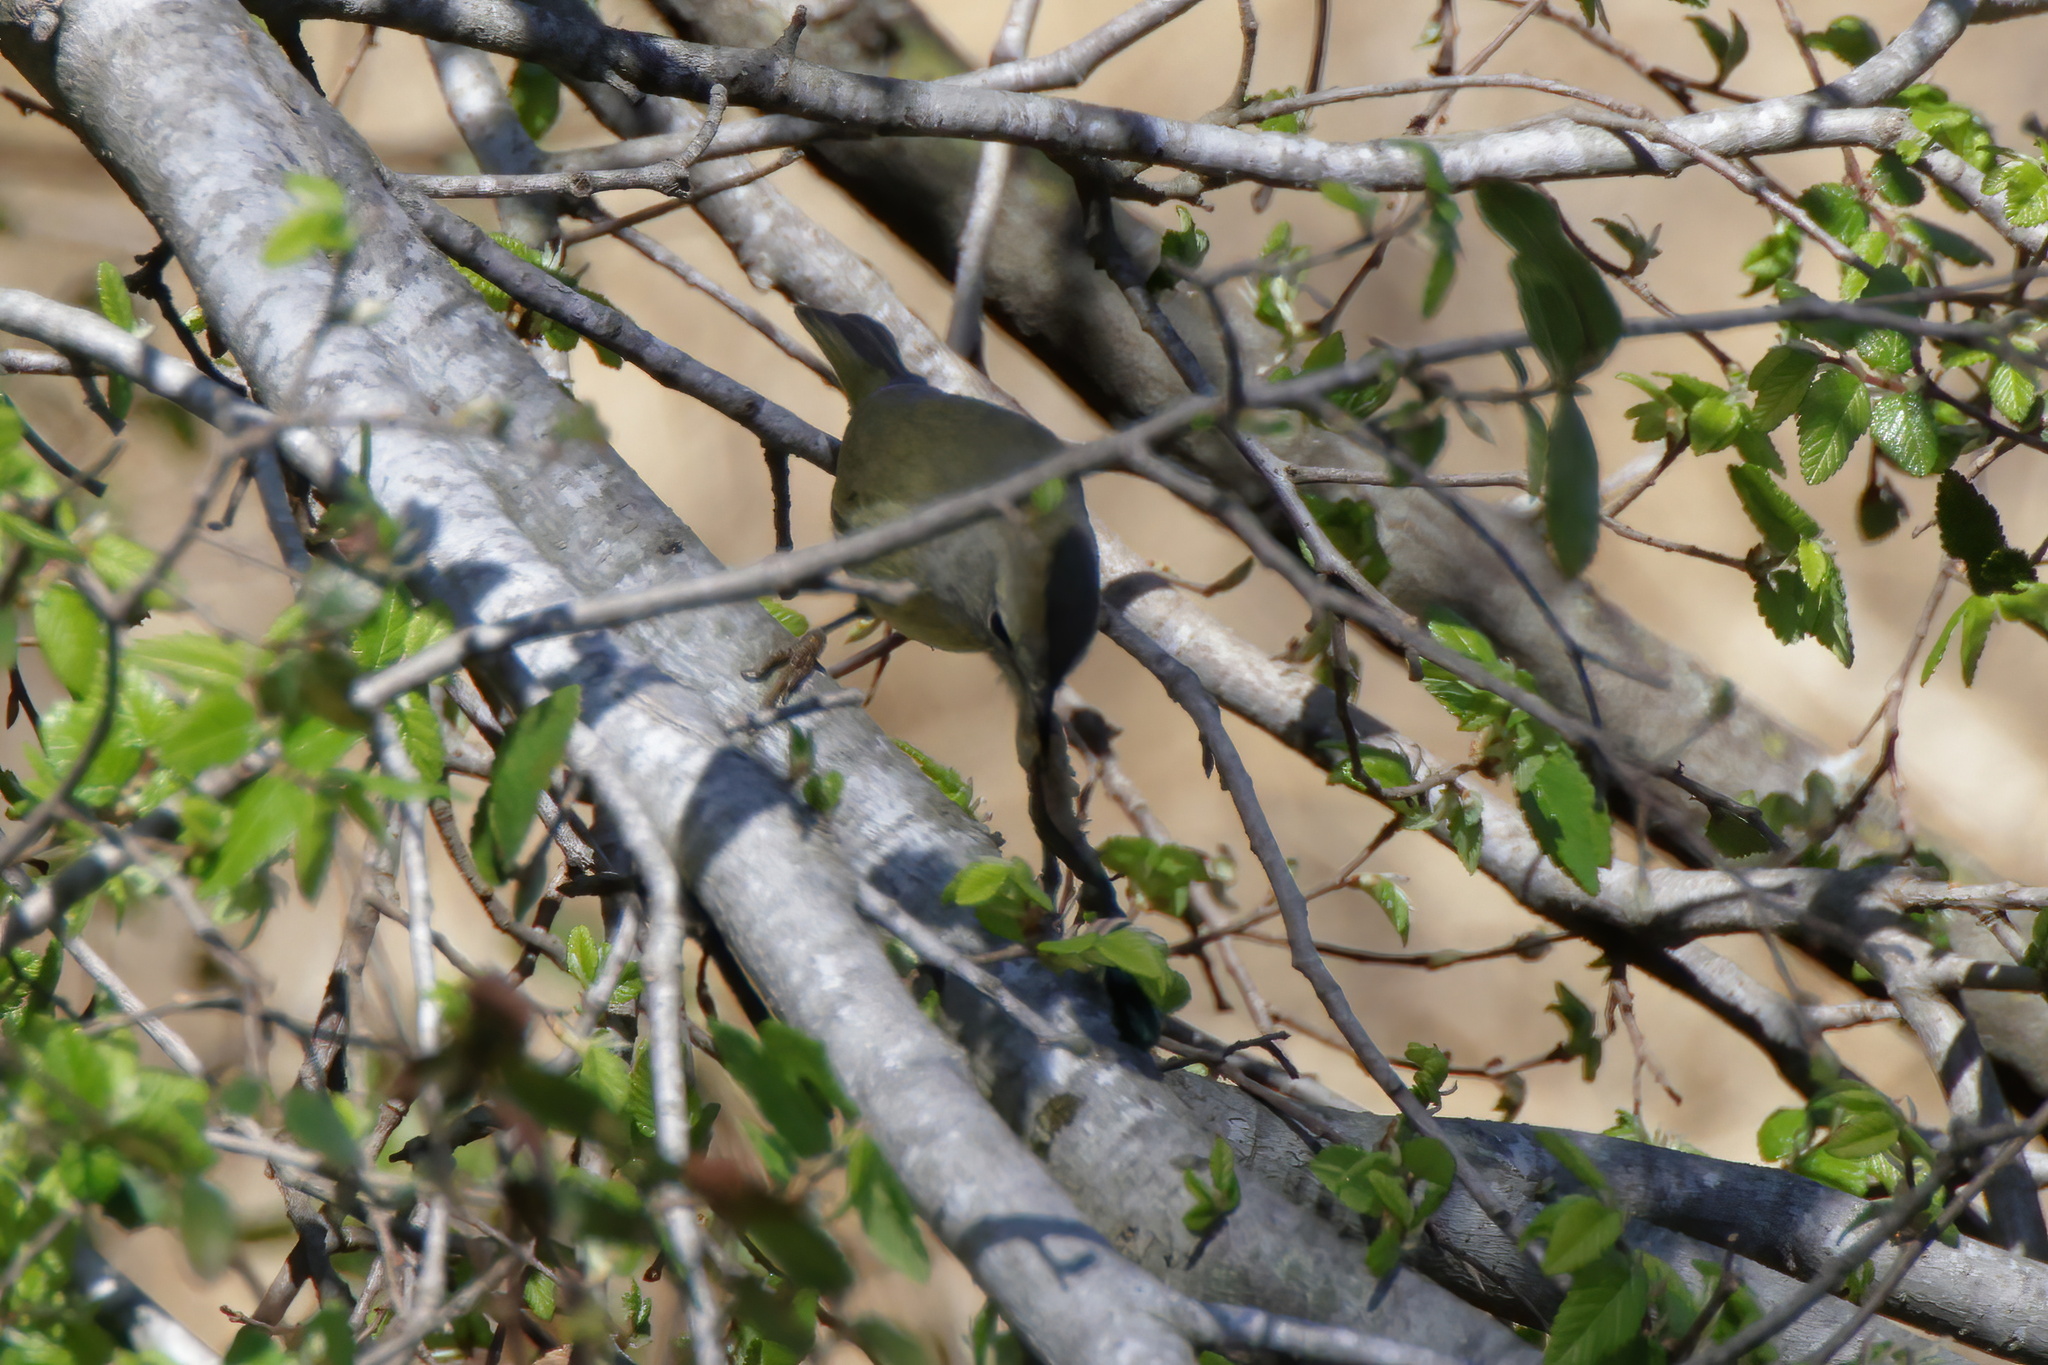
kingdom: Animalia
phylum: Chordata
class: Aves
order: Passeriformes
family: Parulidae
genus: Leiothlypis
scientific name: Leiothlypis celata
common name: Orange-crowned warbler
